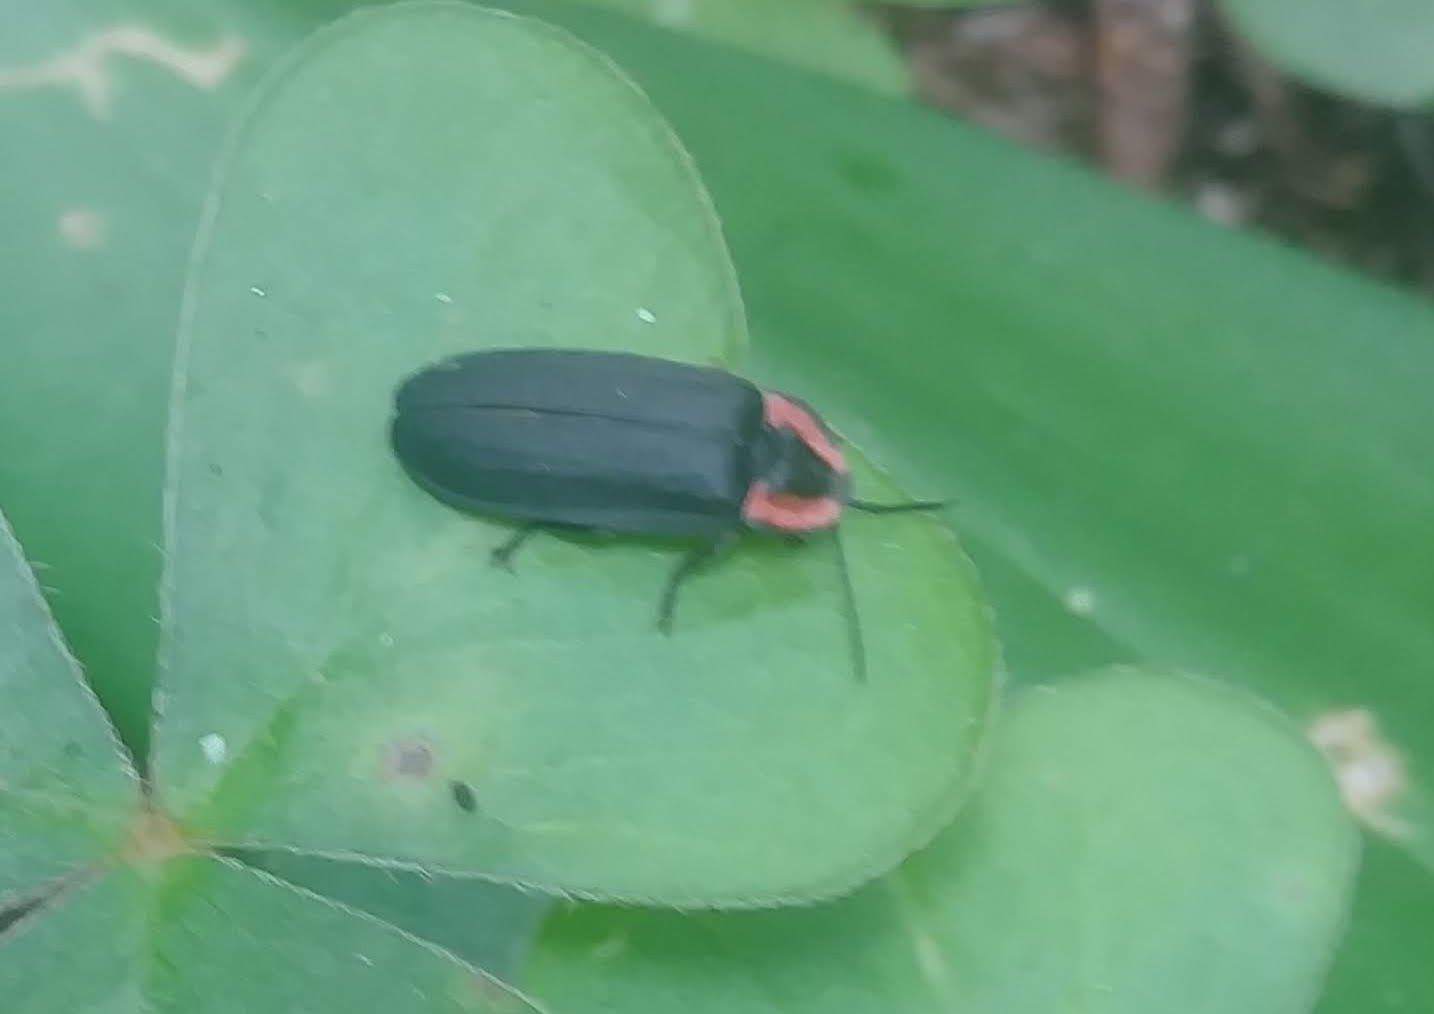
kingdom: Animalia
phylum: Arthropoda
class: Insecta
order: Coleoptera
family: Lampyridae
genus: Photinus
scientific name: Photinus californica
